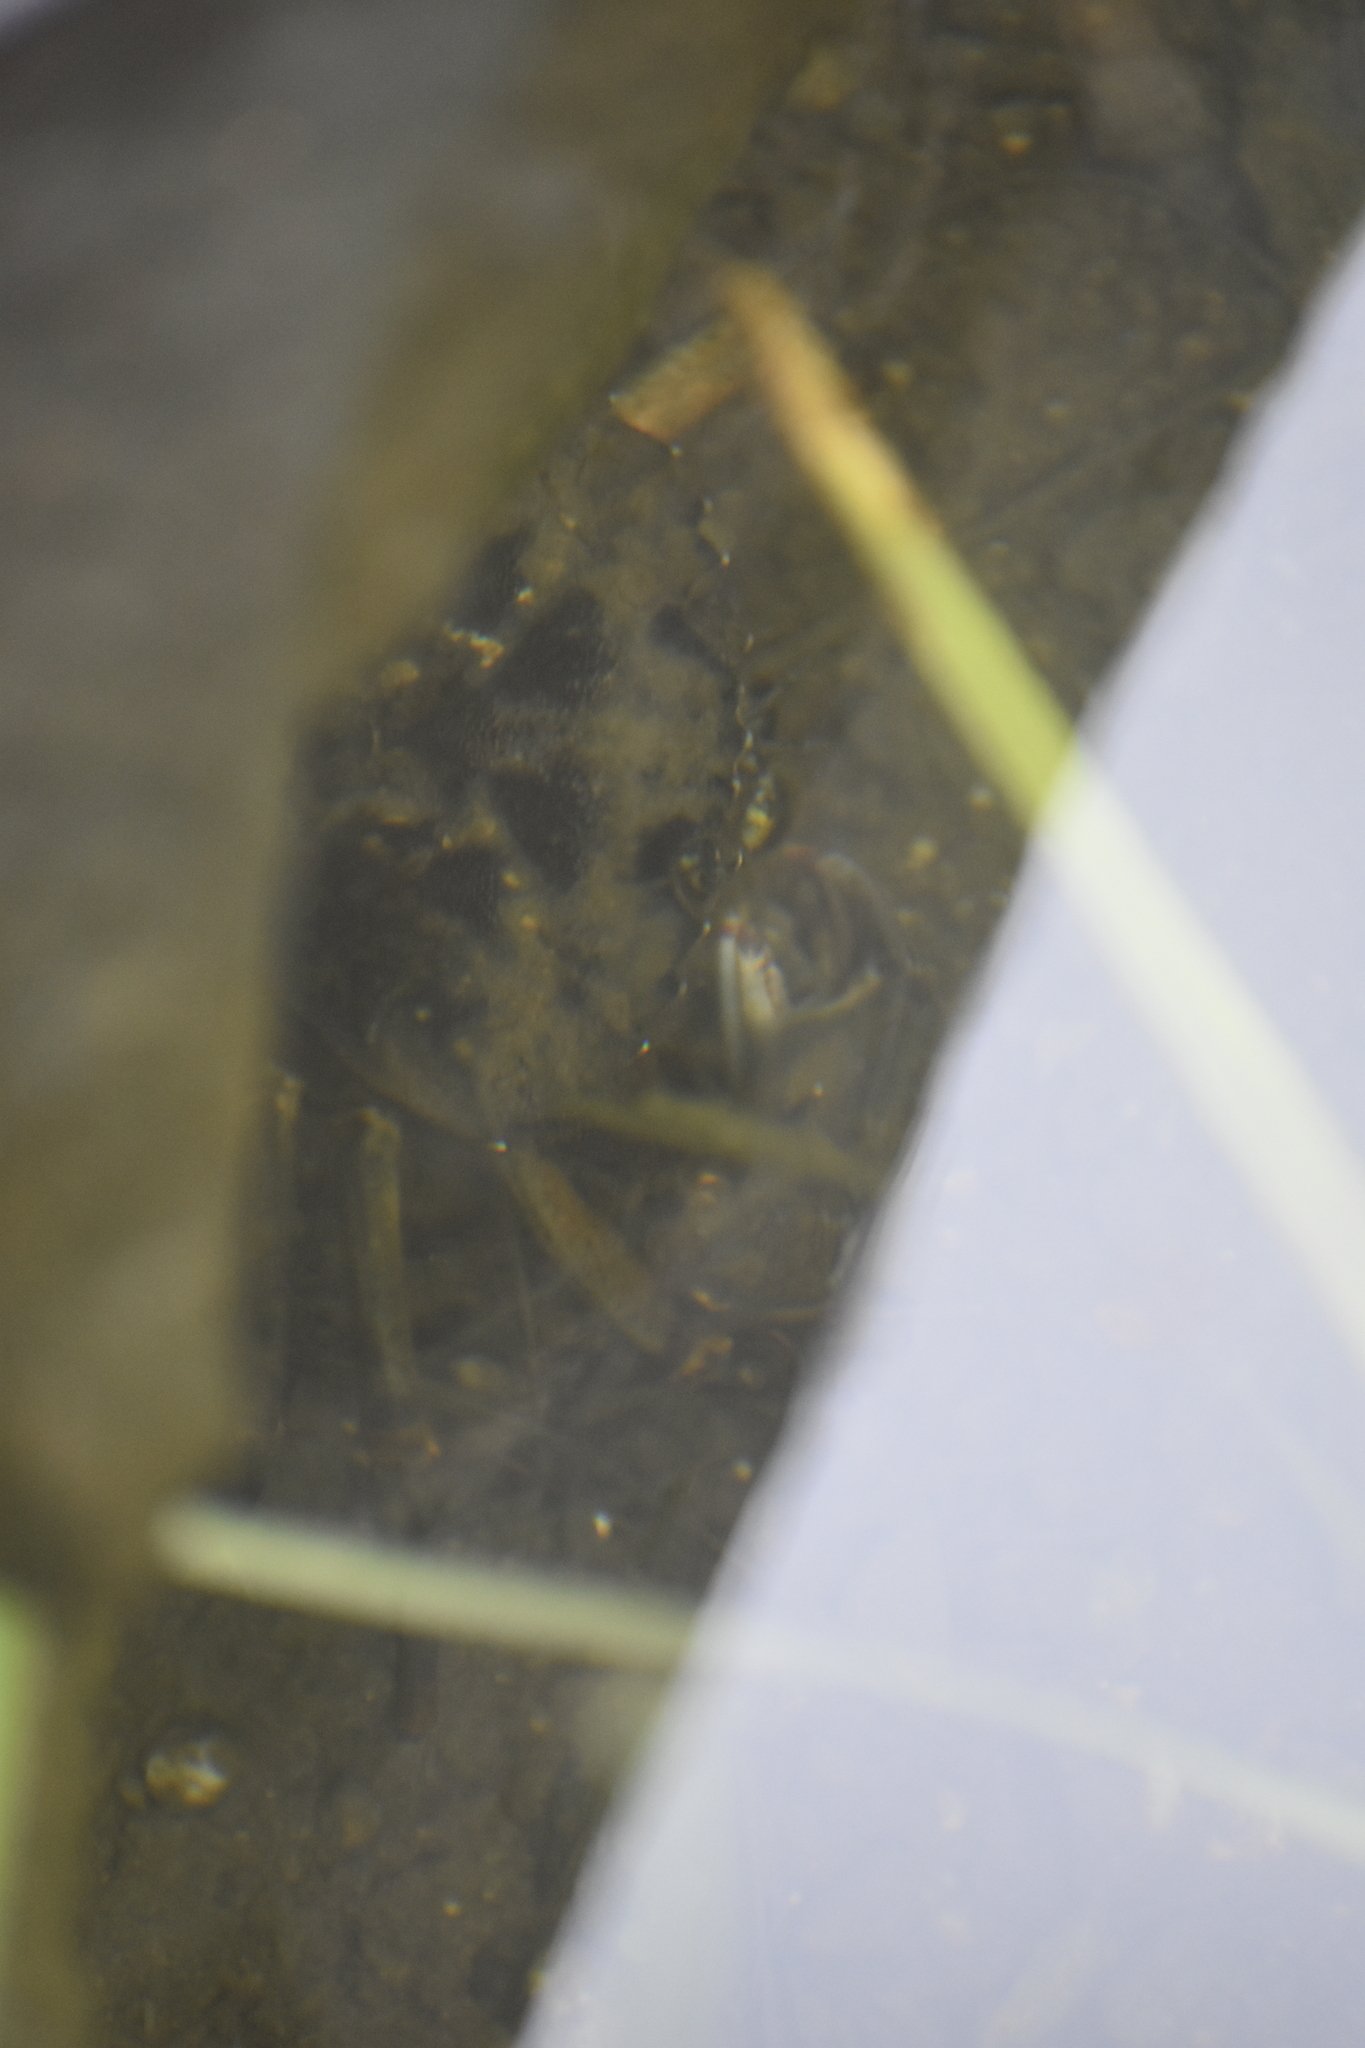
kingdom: Animalia
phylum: Arthropoda
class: Malacostraca
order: Decapoda
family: Carcinidae
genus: Carcinus
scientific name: Carcinus maenas
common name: European green crab
